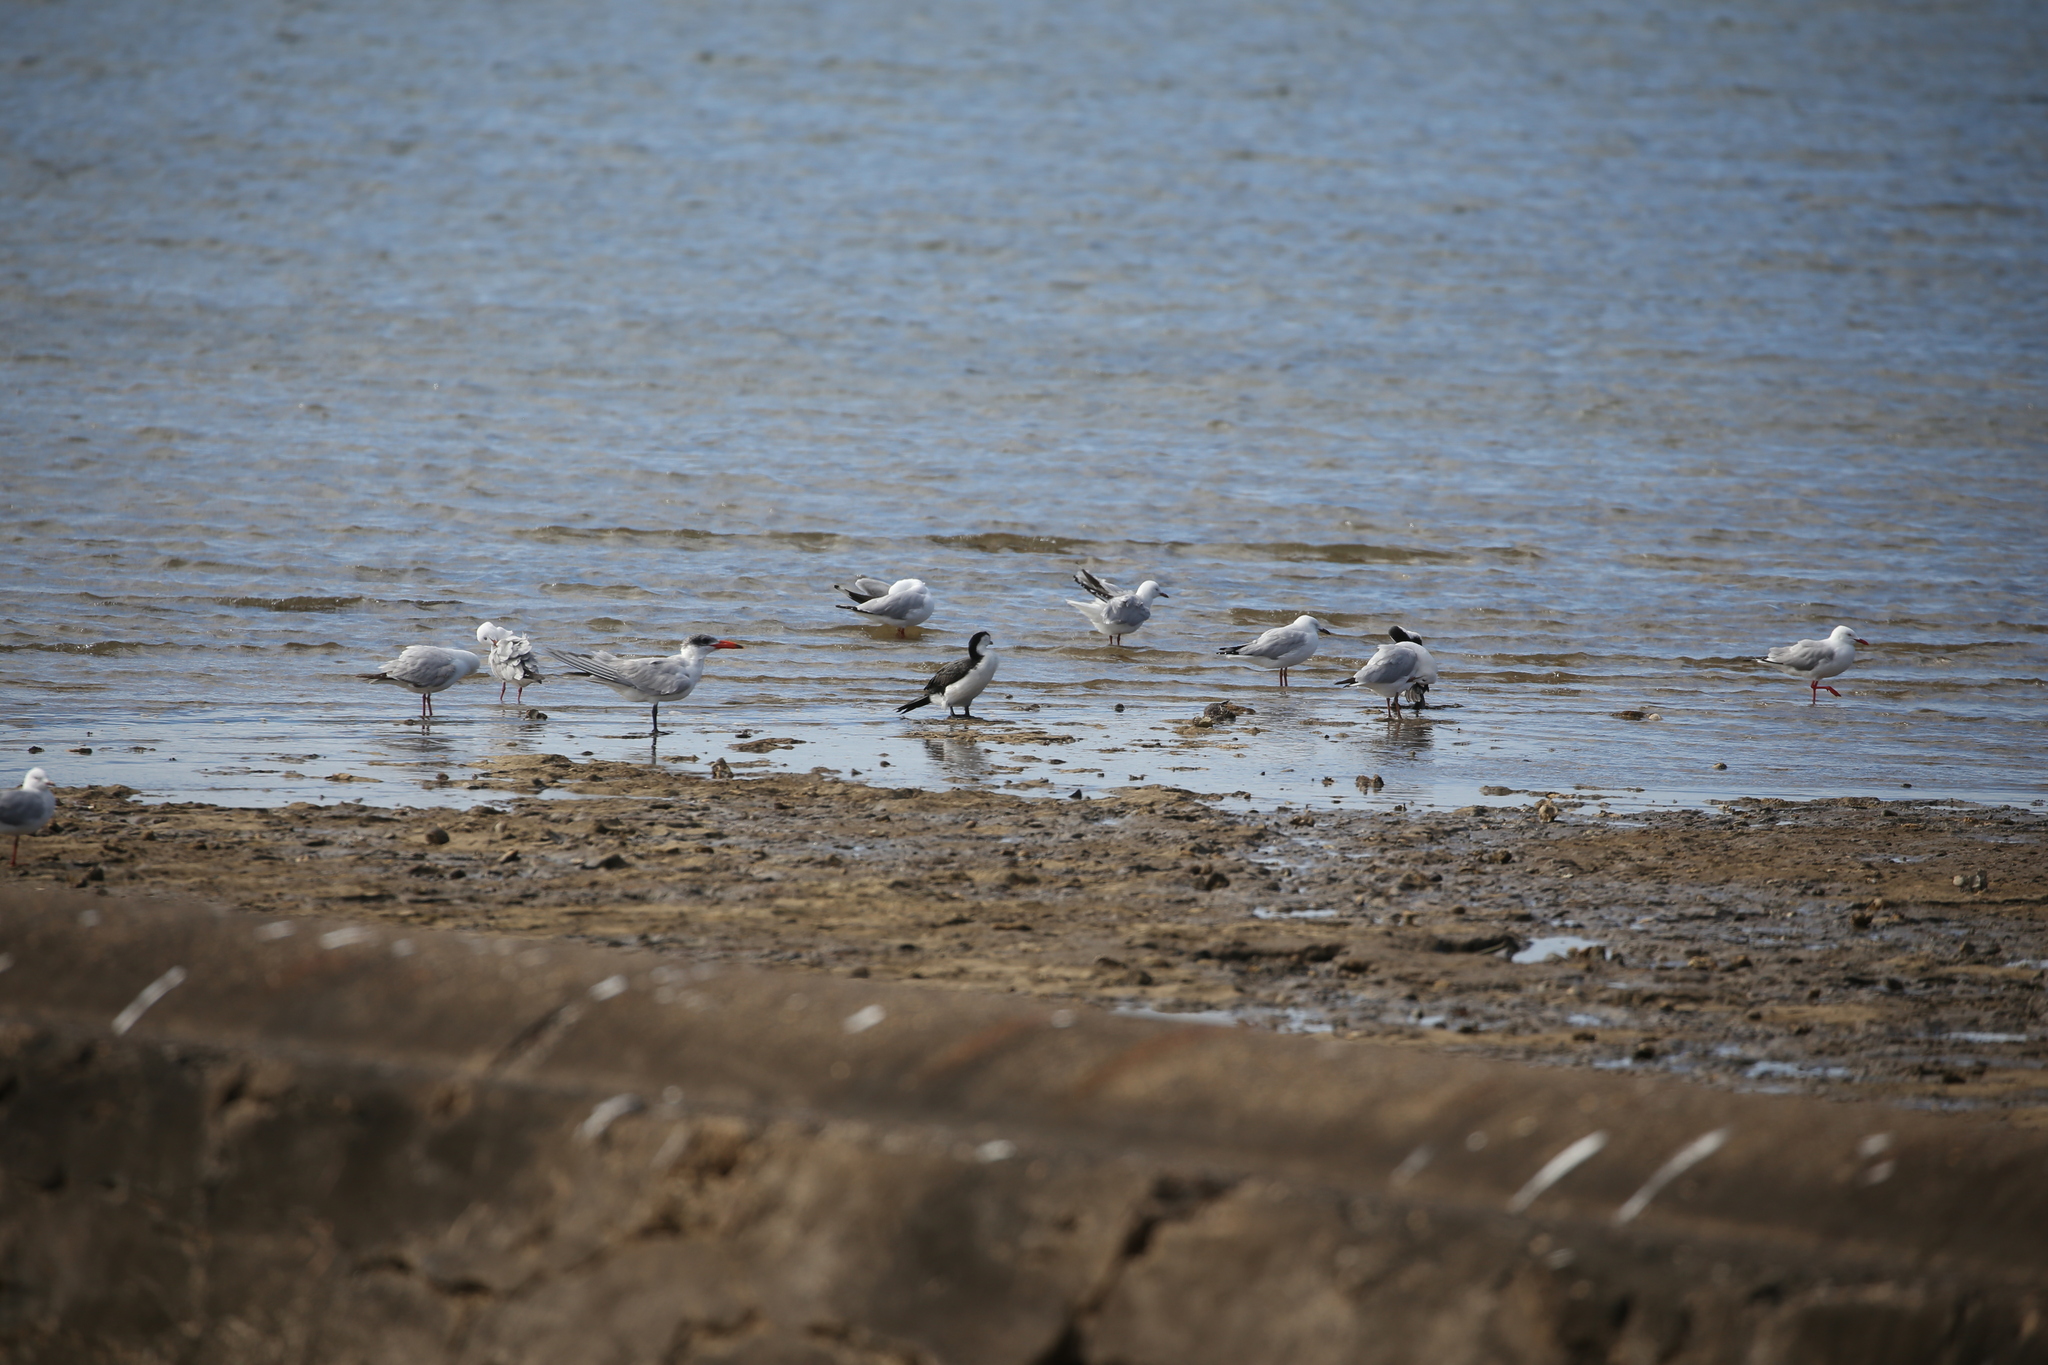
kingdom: Animalia
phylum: Chordata
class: Aves
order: Charadriiformes
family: Laridae
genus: Hydroprogne
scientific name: Hydroprogne caspia
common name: Caspian tern
